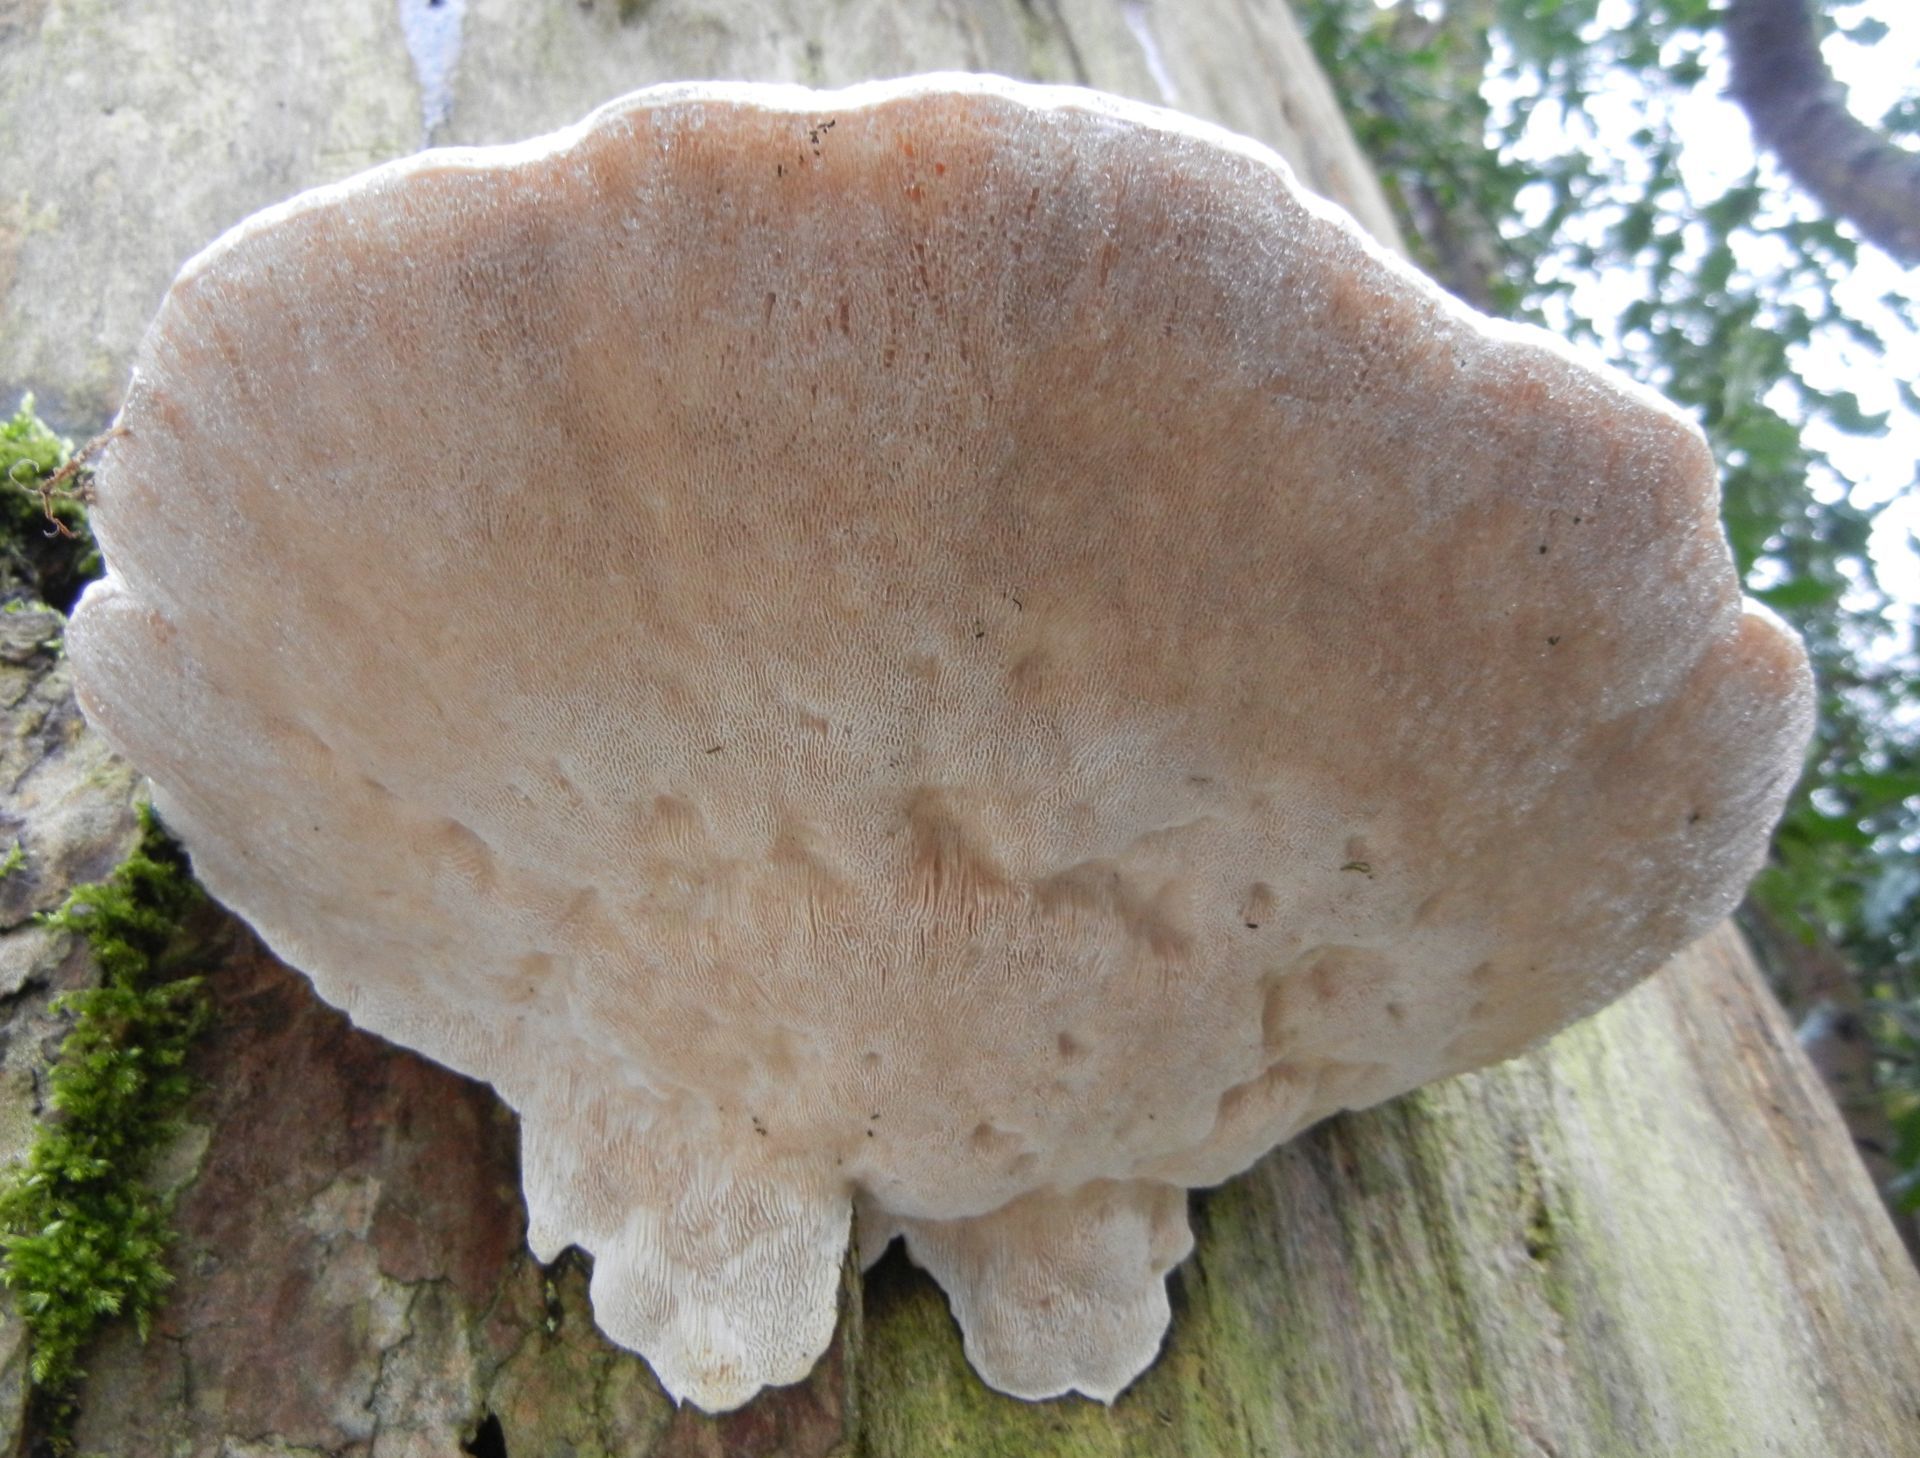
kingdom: Fungi
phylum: Basidiomycota
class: Agaricomycetes
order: Polyporales
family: Polyporaceae
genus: Trametes
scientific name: Trametes gibbosa
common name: Lumpy bracket
